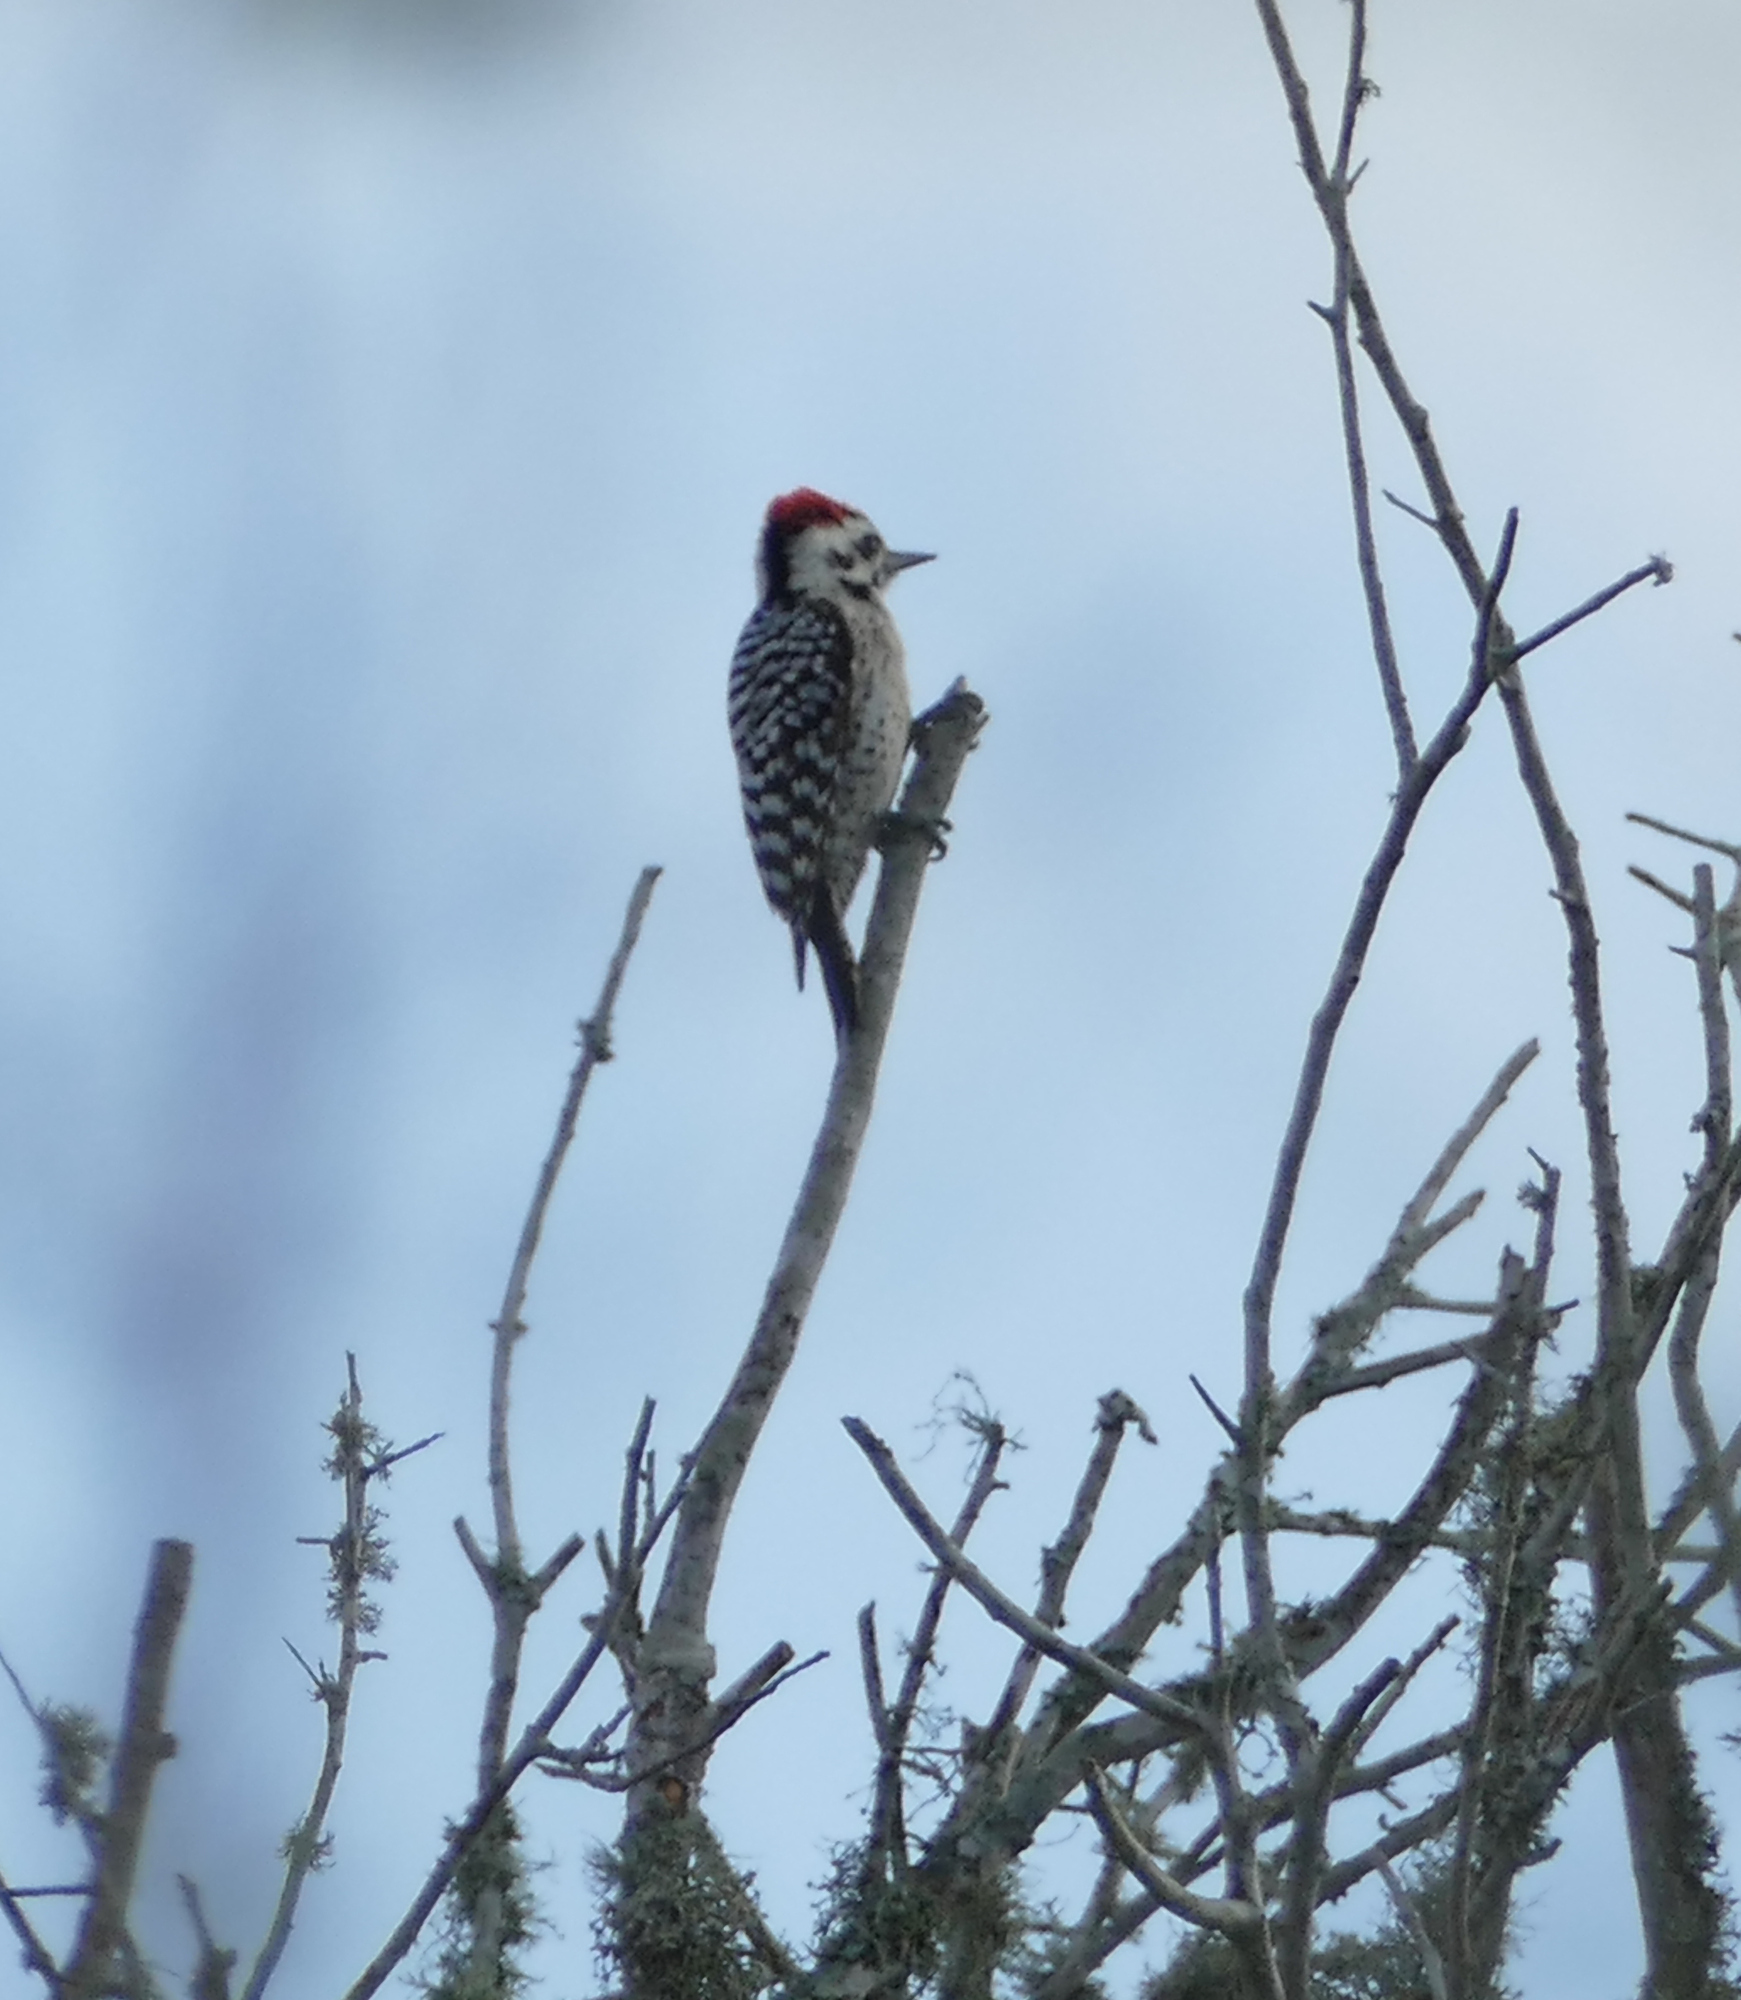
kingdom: Animalia
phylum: Chordata
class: Aves
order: Piciformes
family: Picidae
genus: Dryobates
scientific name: Dryobates scalaris
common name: Ladder-backed woodpecker
